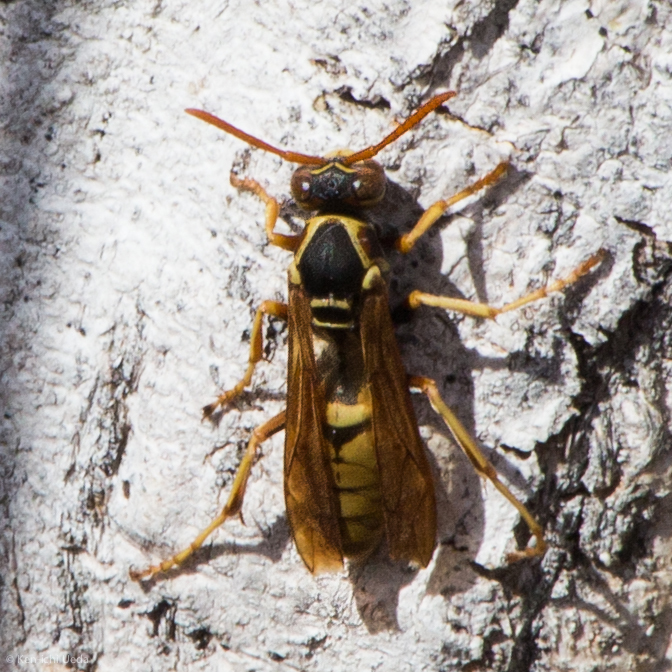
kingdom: Animalia
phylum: Arthropoda
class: Insecta
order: Hymenoptera
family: Eumenidae
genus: Polistes
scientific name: Polistes aurifer
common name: Paper wasp
